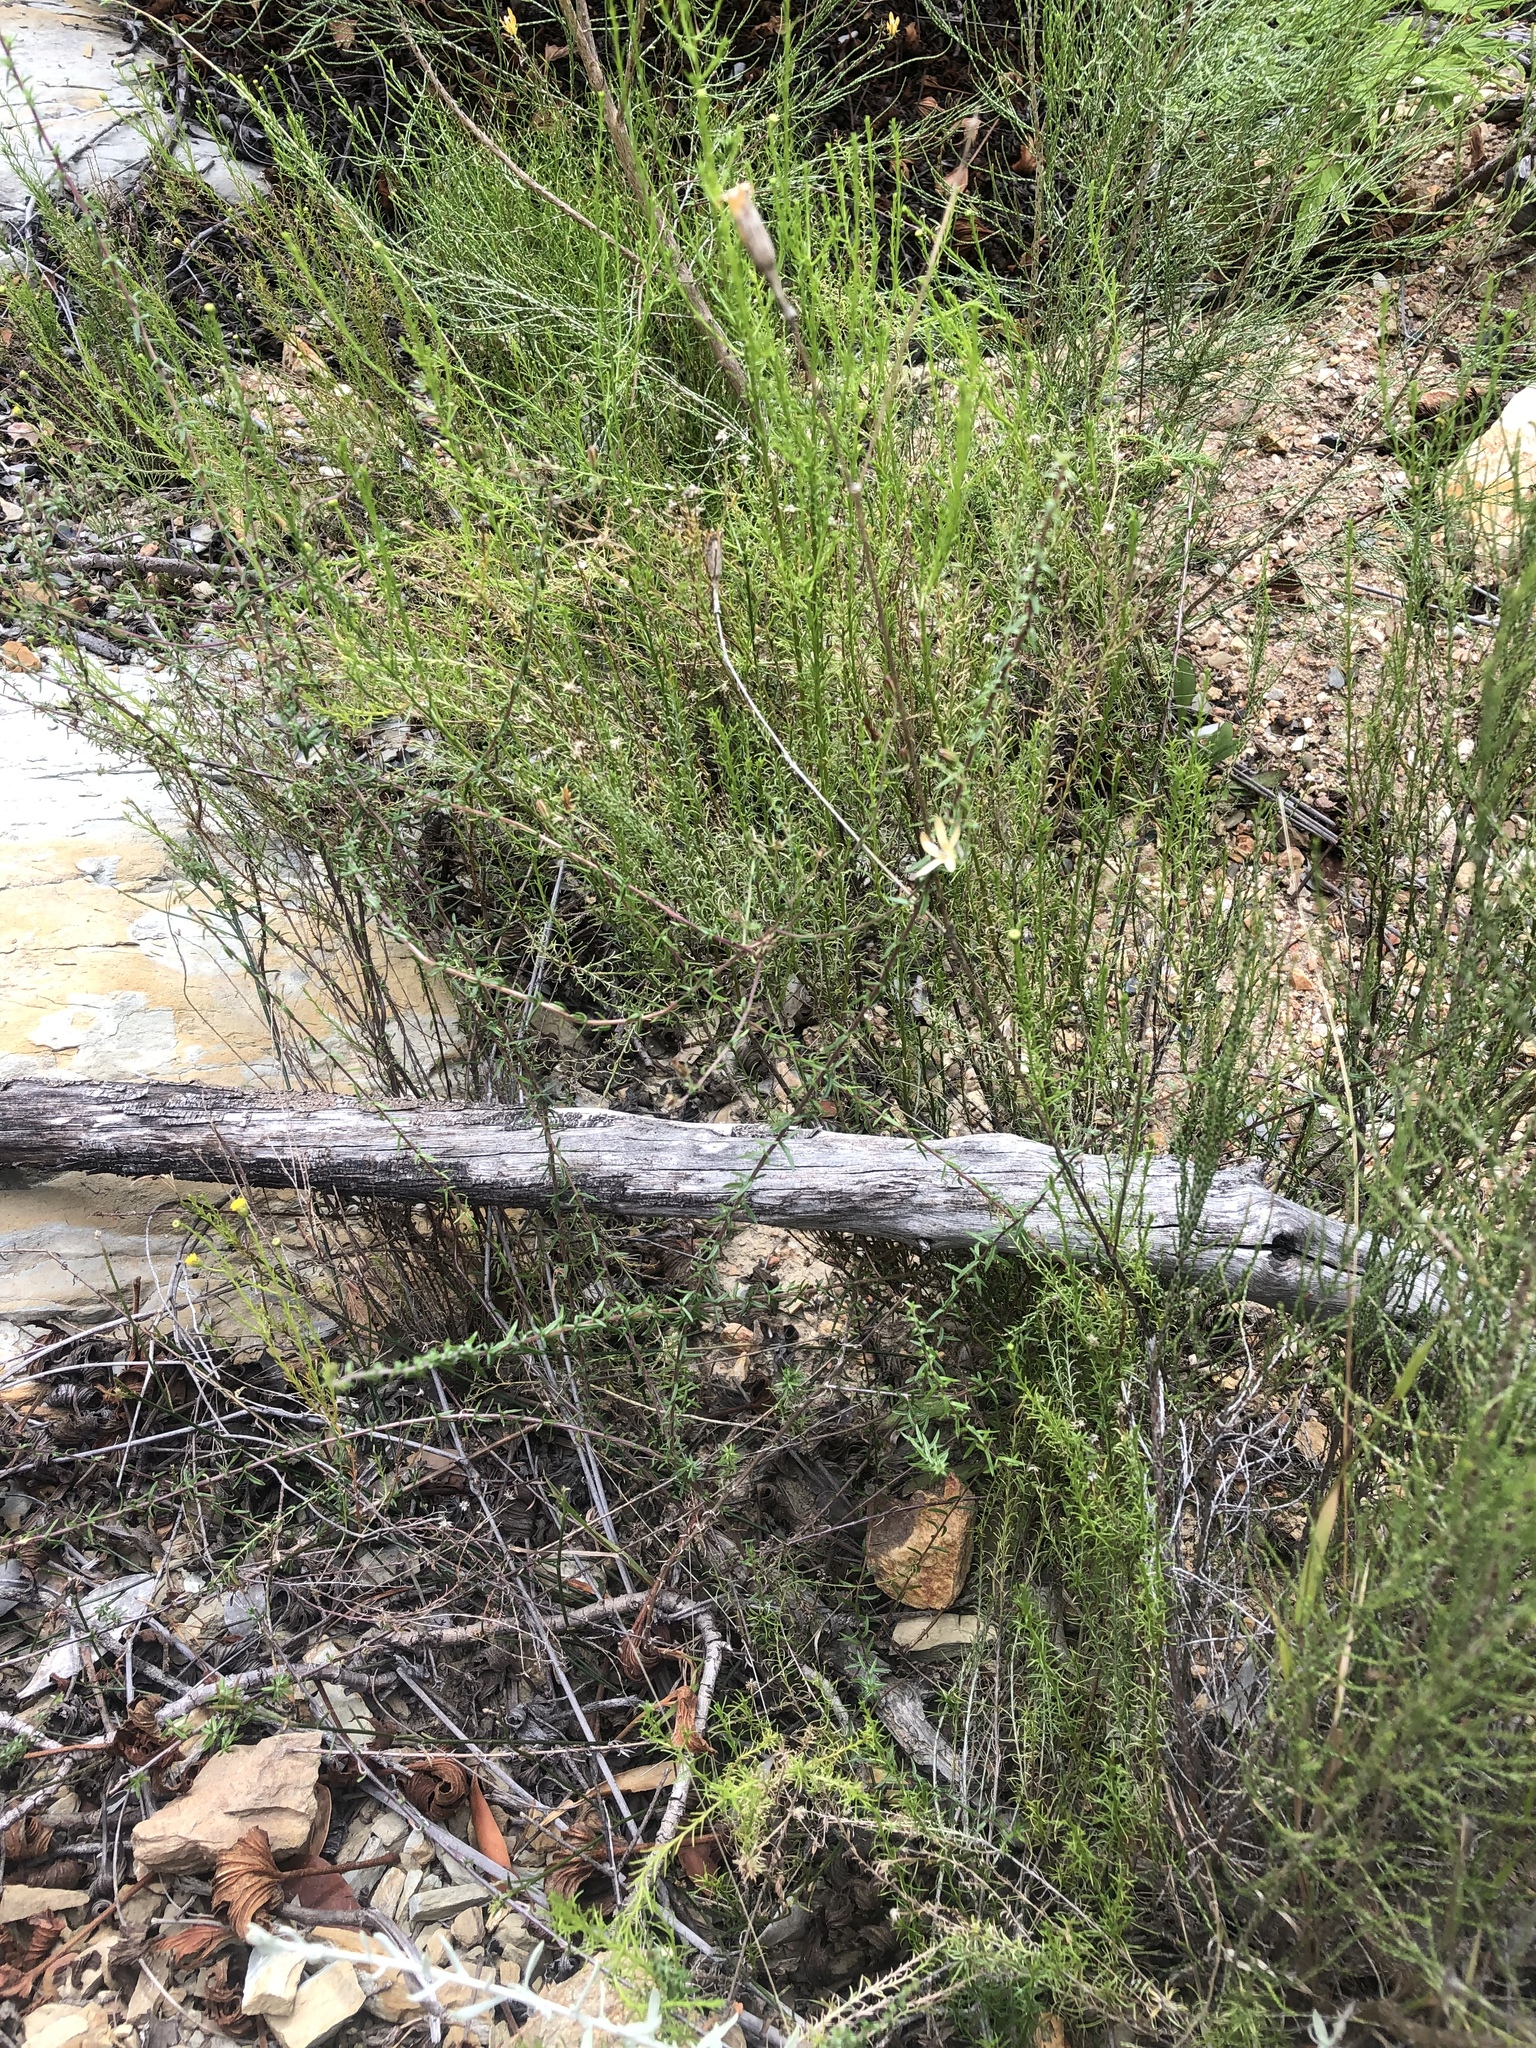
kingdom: Plantae
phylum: Tracheophyta
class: Magnoliopsida
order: Asterales
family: Campanulaceae
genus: Wahlenbergia
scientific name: Wahlenbergia nodosa
